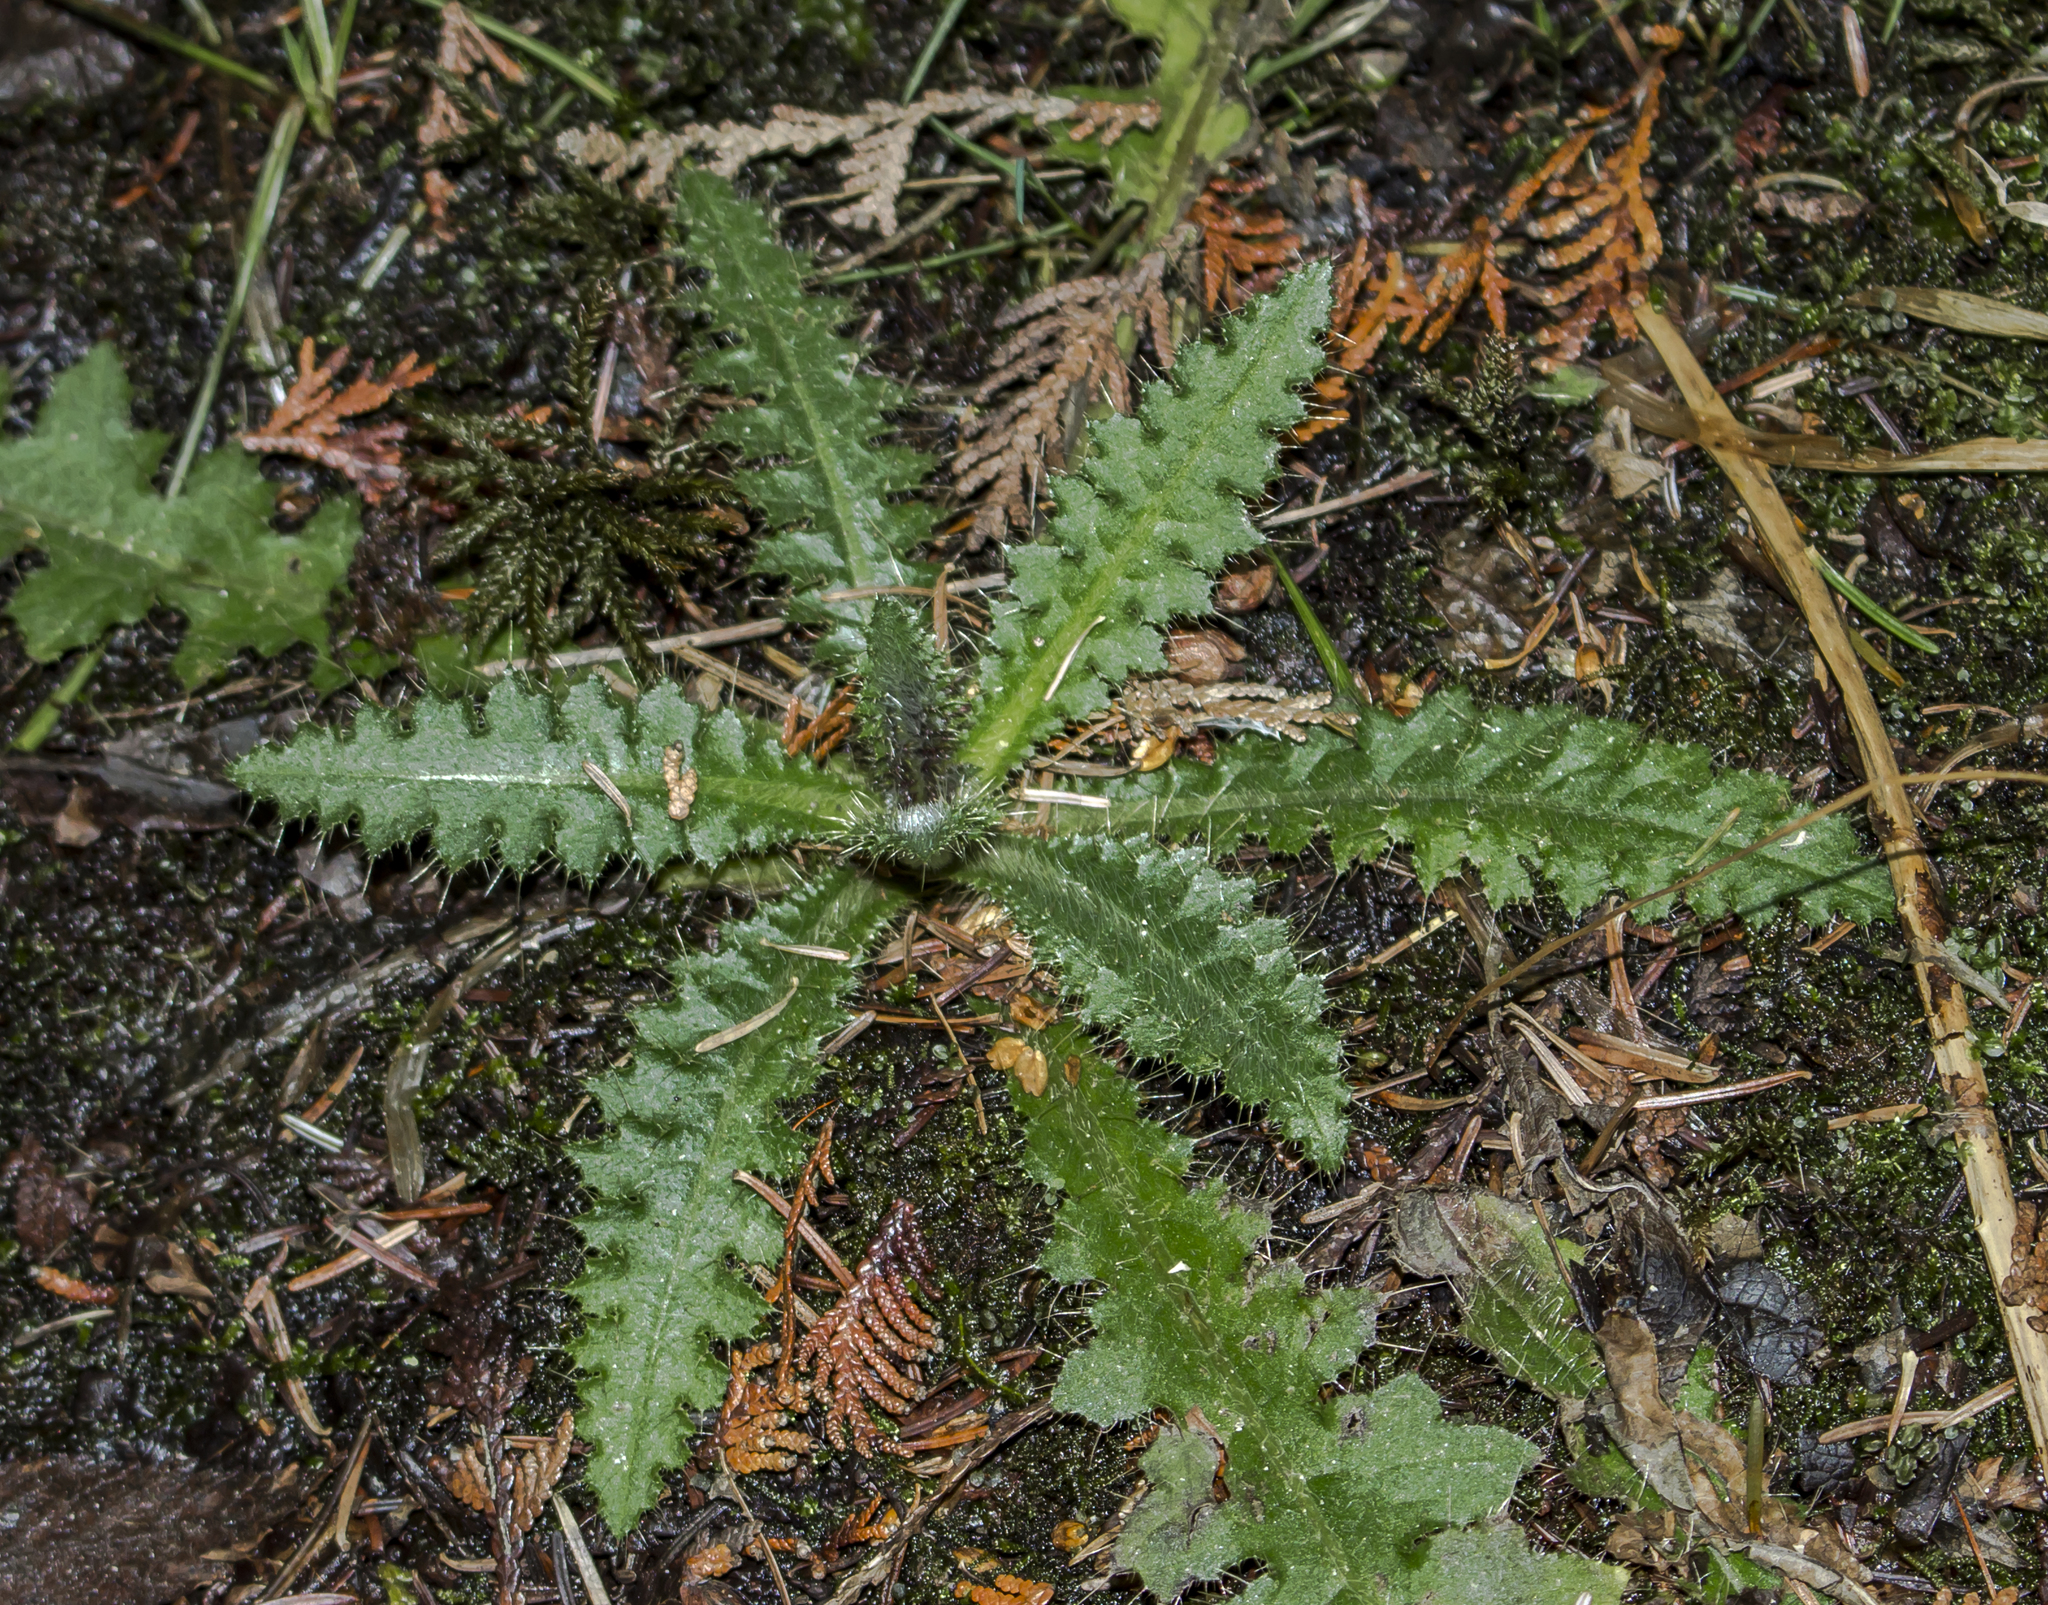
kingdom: Plantae
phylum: Tracheophyta
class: Magnoliopsida
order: Asterales
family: Asteraceae
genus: Cirsium
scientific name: Cirsium palustre
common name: Marsh thistle
